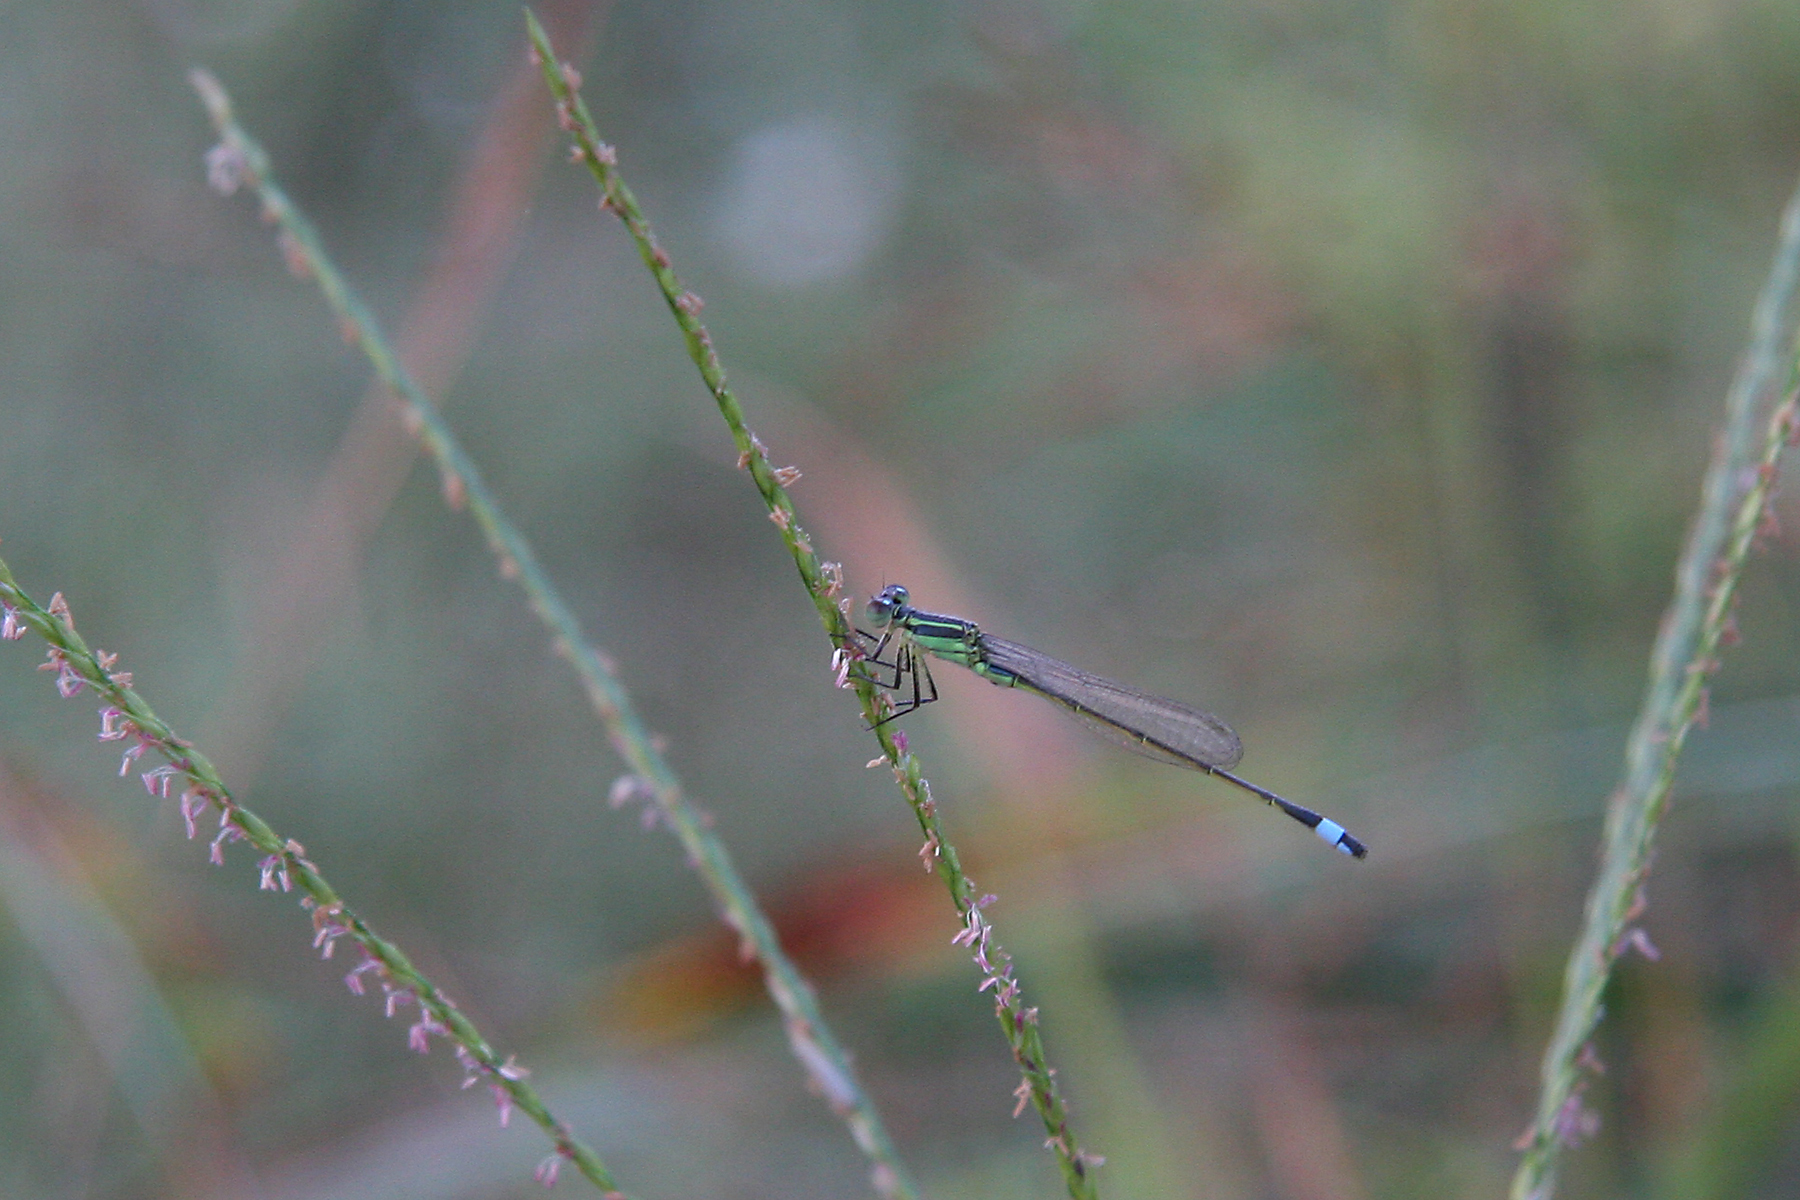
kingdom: Animalia
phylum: Arthropoda
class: Insecta
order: Odonata
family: Coenagrionidae
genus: Ischnura
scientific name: Ischnura ramburii
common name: Rambur's forktail
